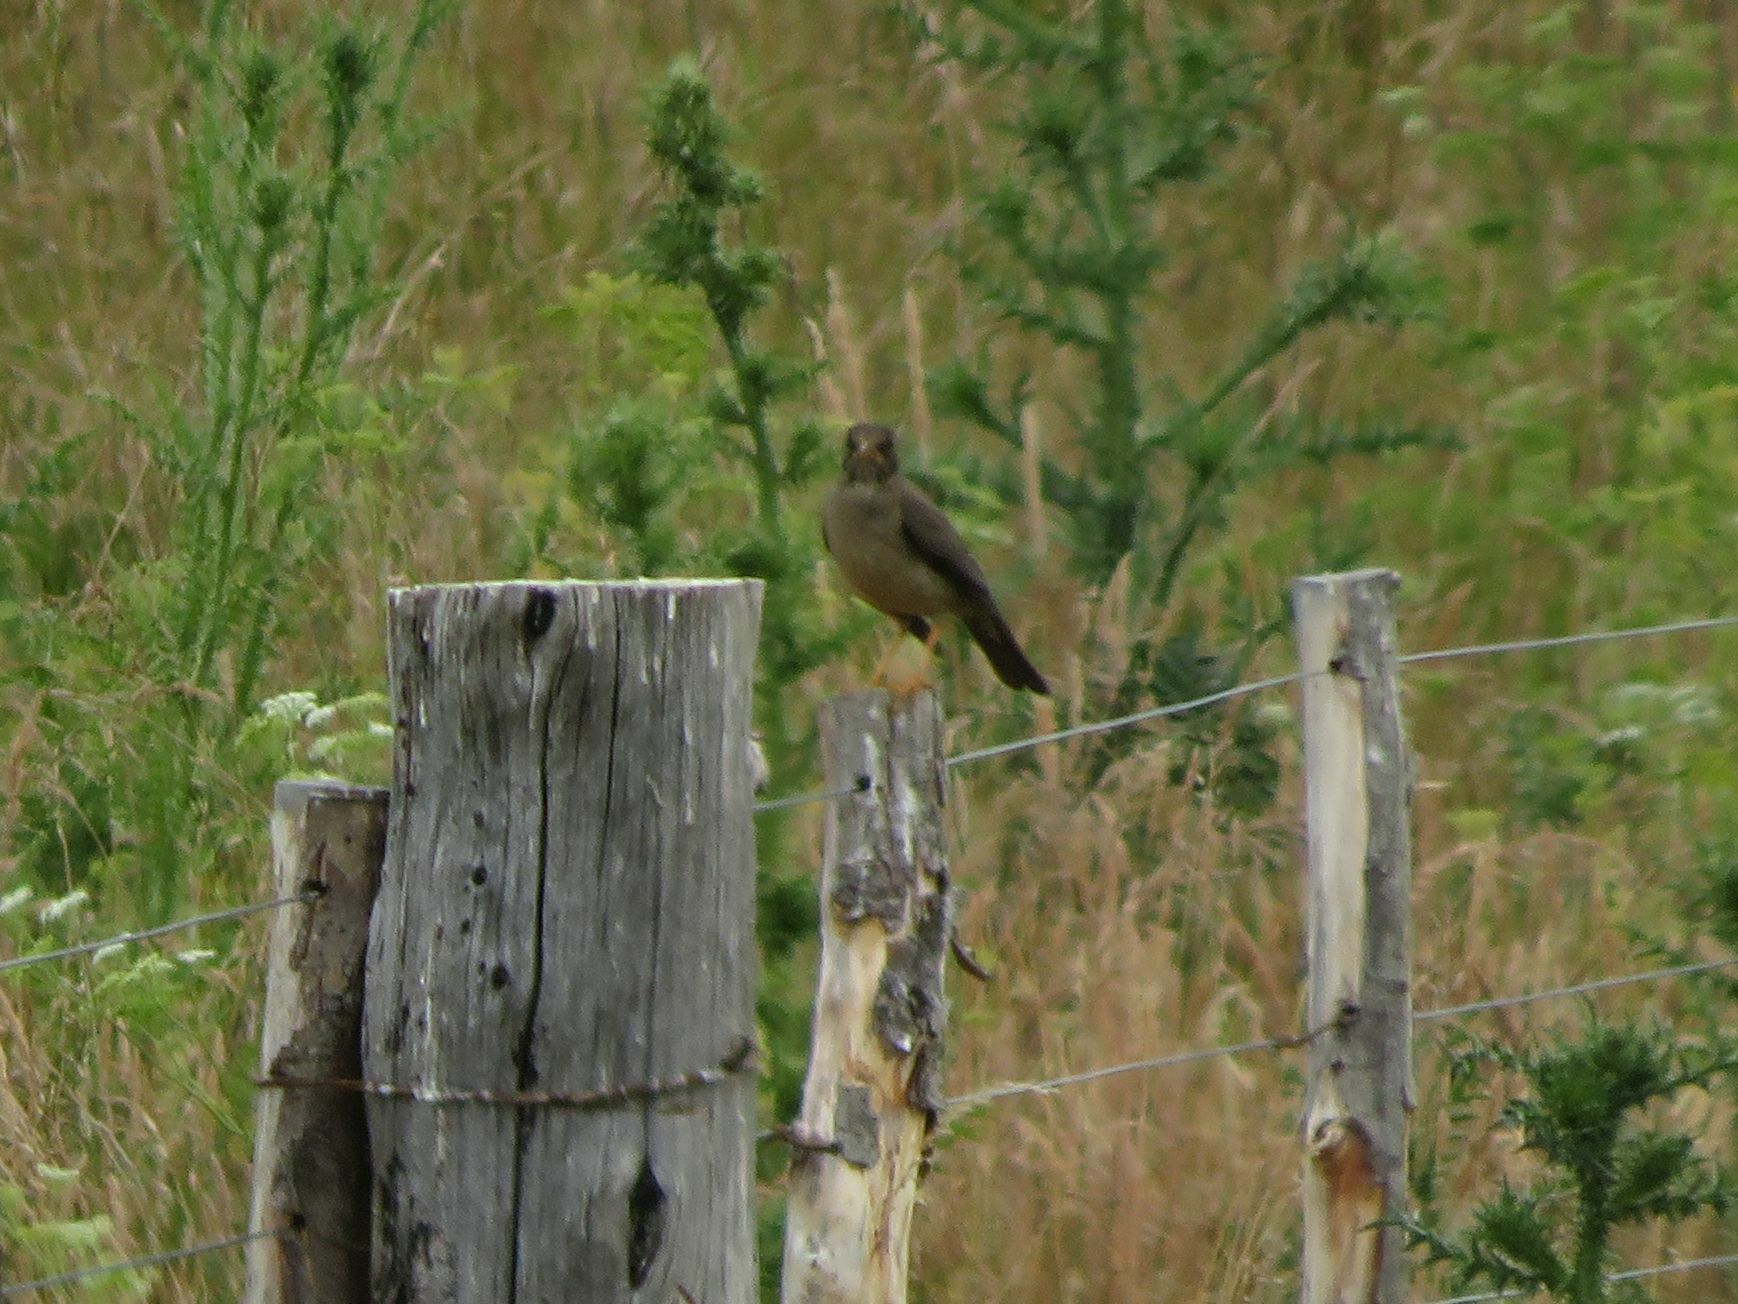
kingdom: Animalia
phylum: Chordata
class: Aves
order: Passeriformes
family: Turdidae
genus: Turdus
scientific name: Turdus falcklandii
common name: Austral thrush
